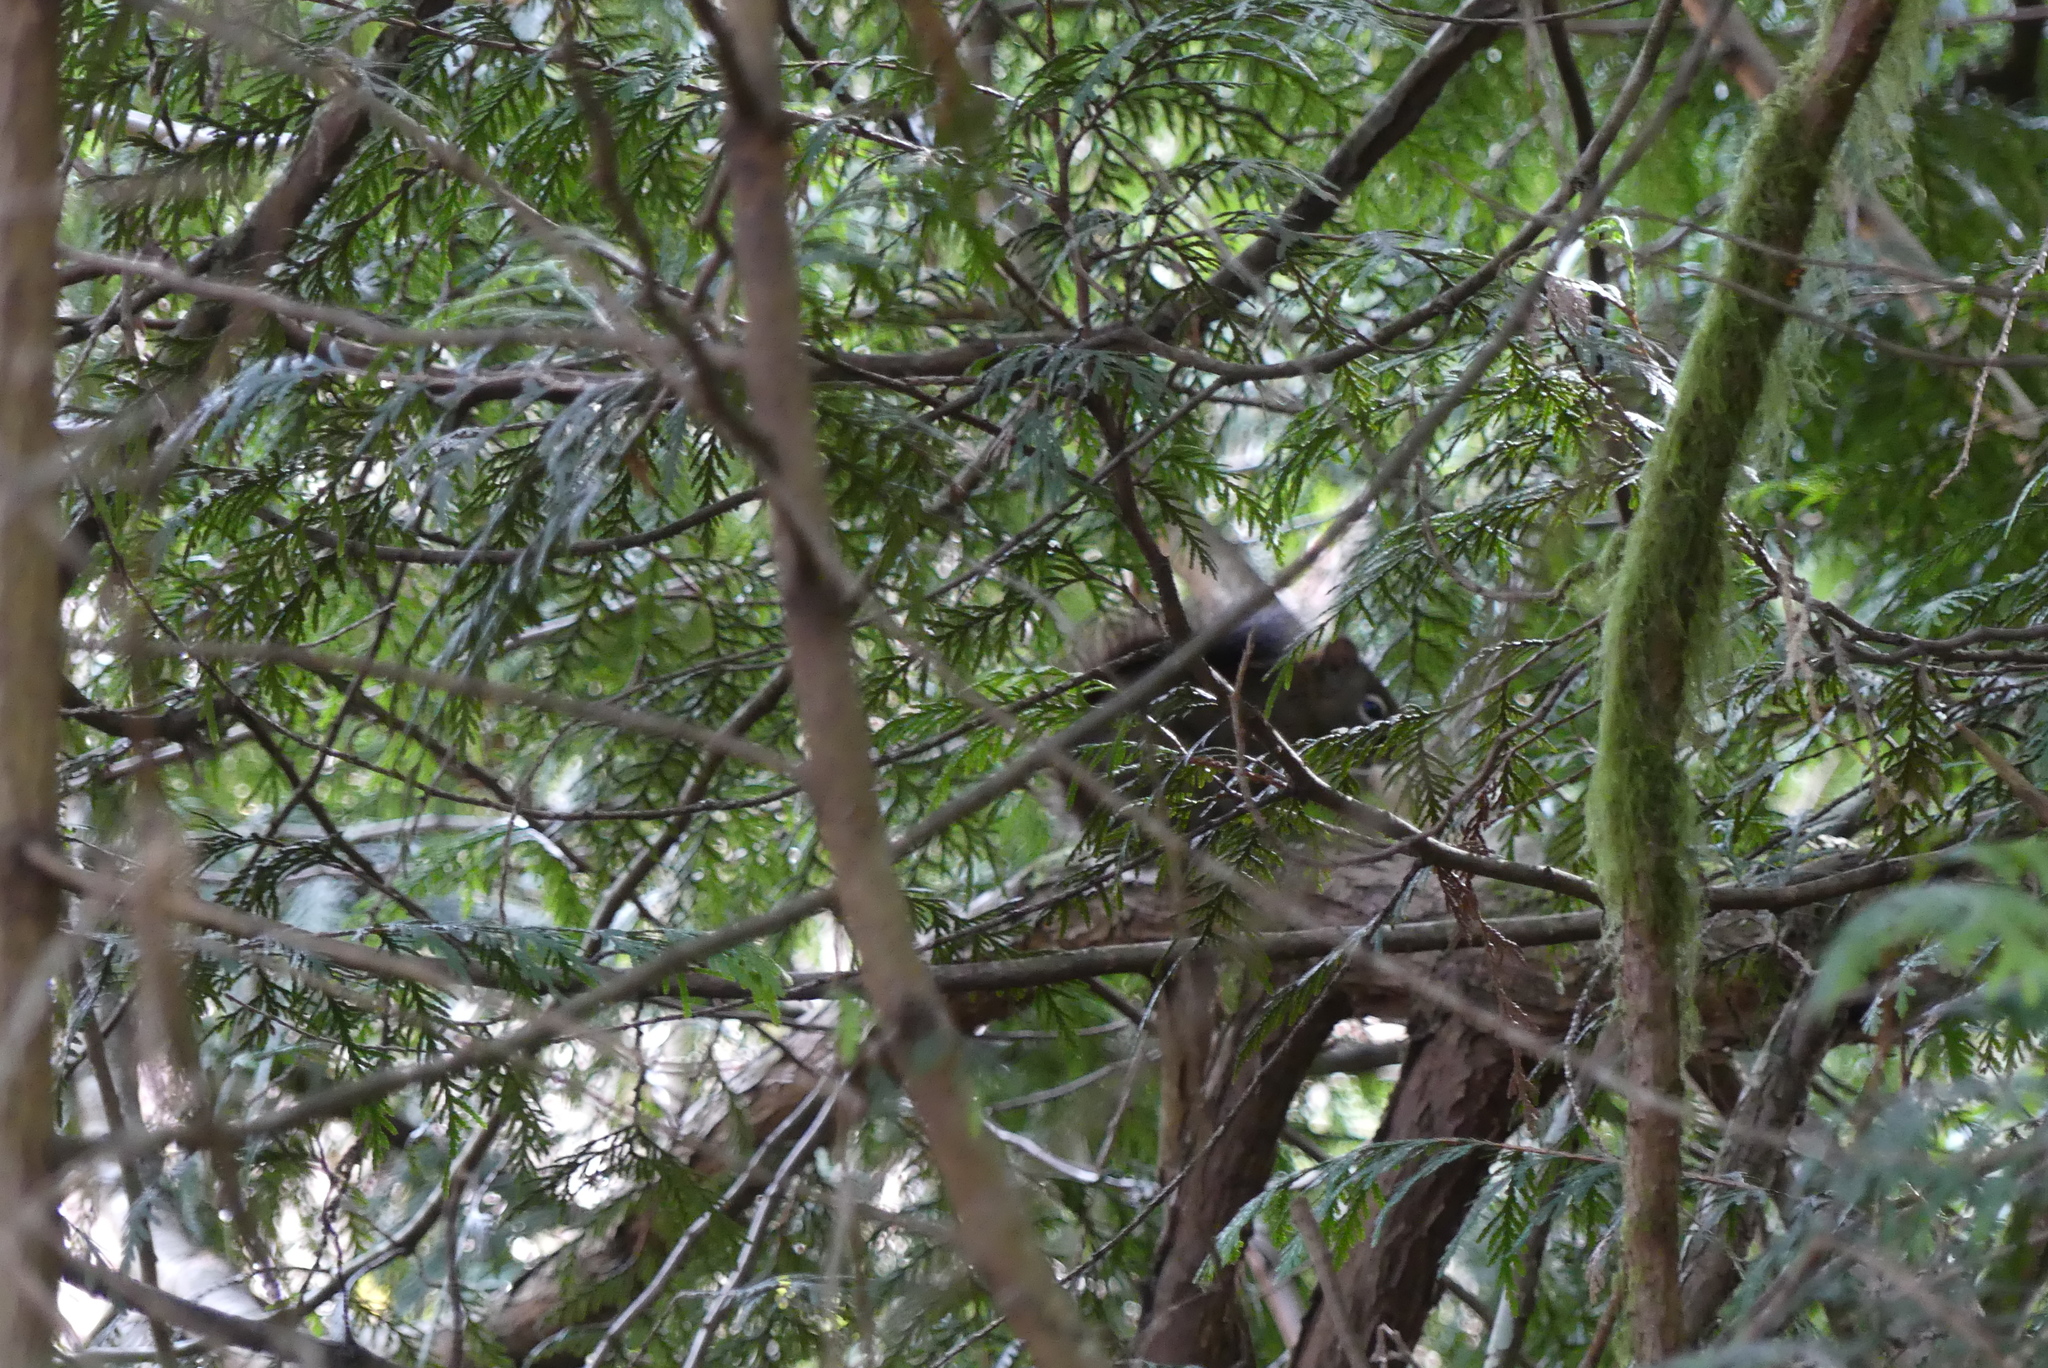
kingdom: Animalia
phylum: Chordata
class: Mammalia
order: Rodentia
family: Sciuridae
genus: Tamiasciurus
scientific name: Tamiasciurus hudsonicus
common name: Red squirrel
